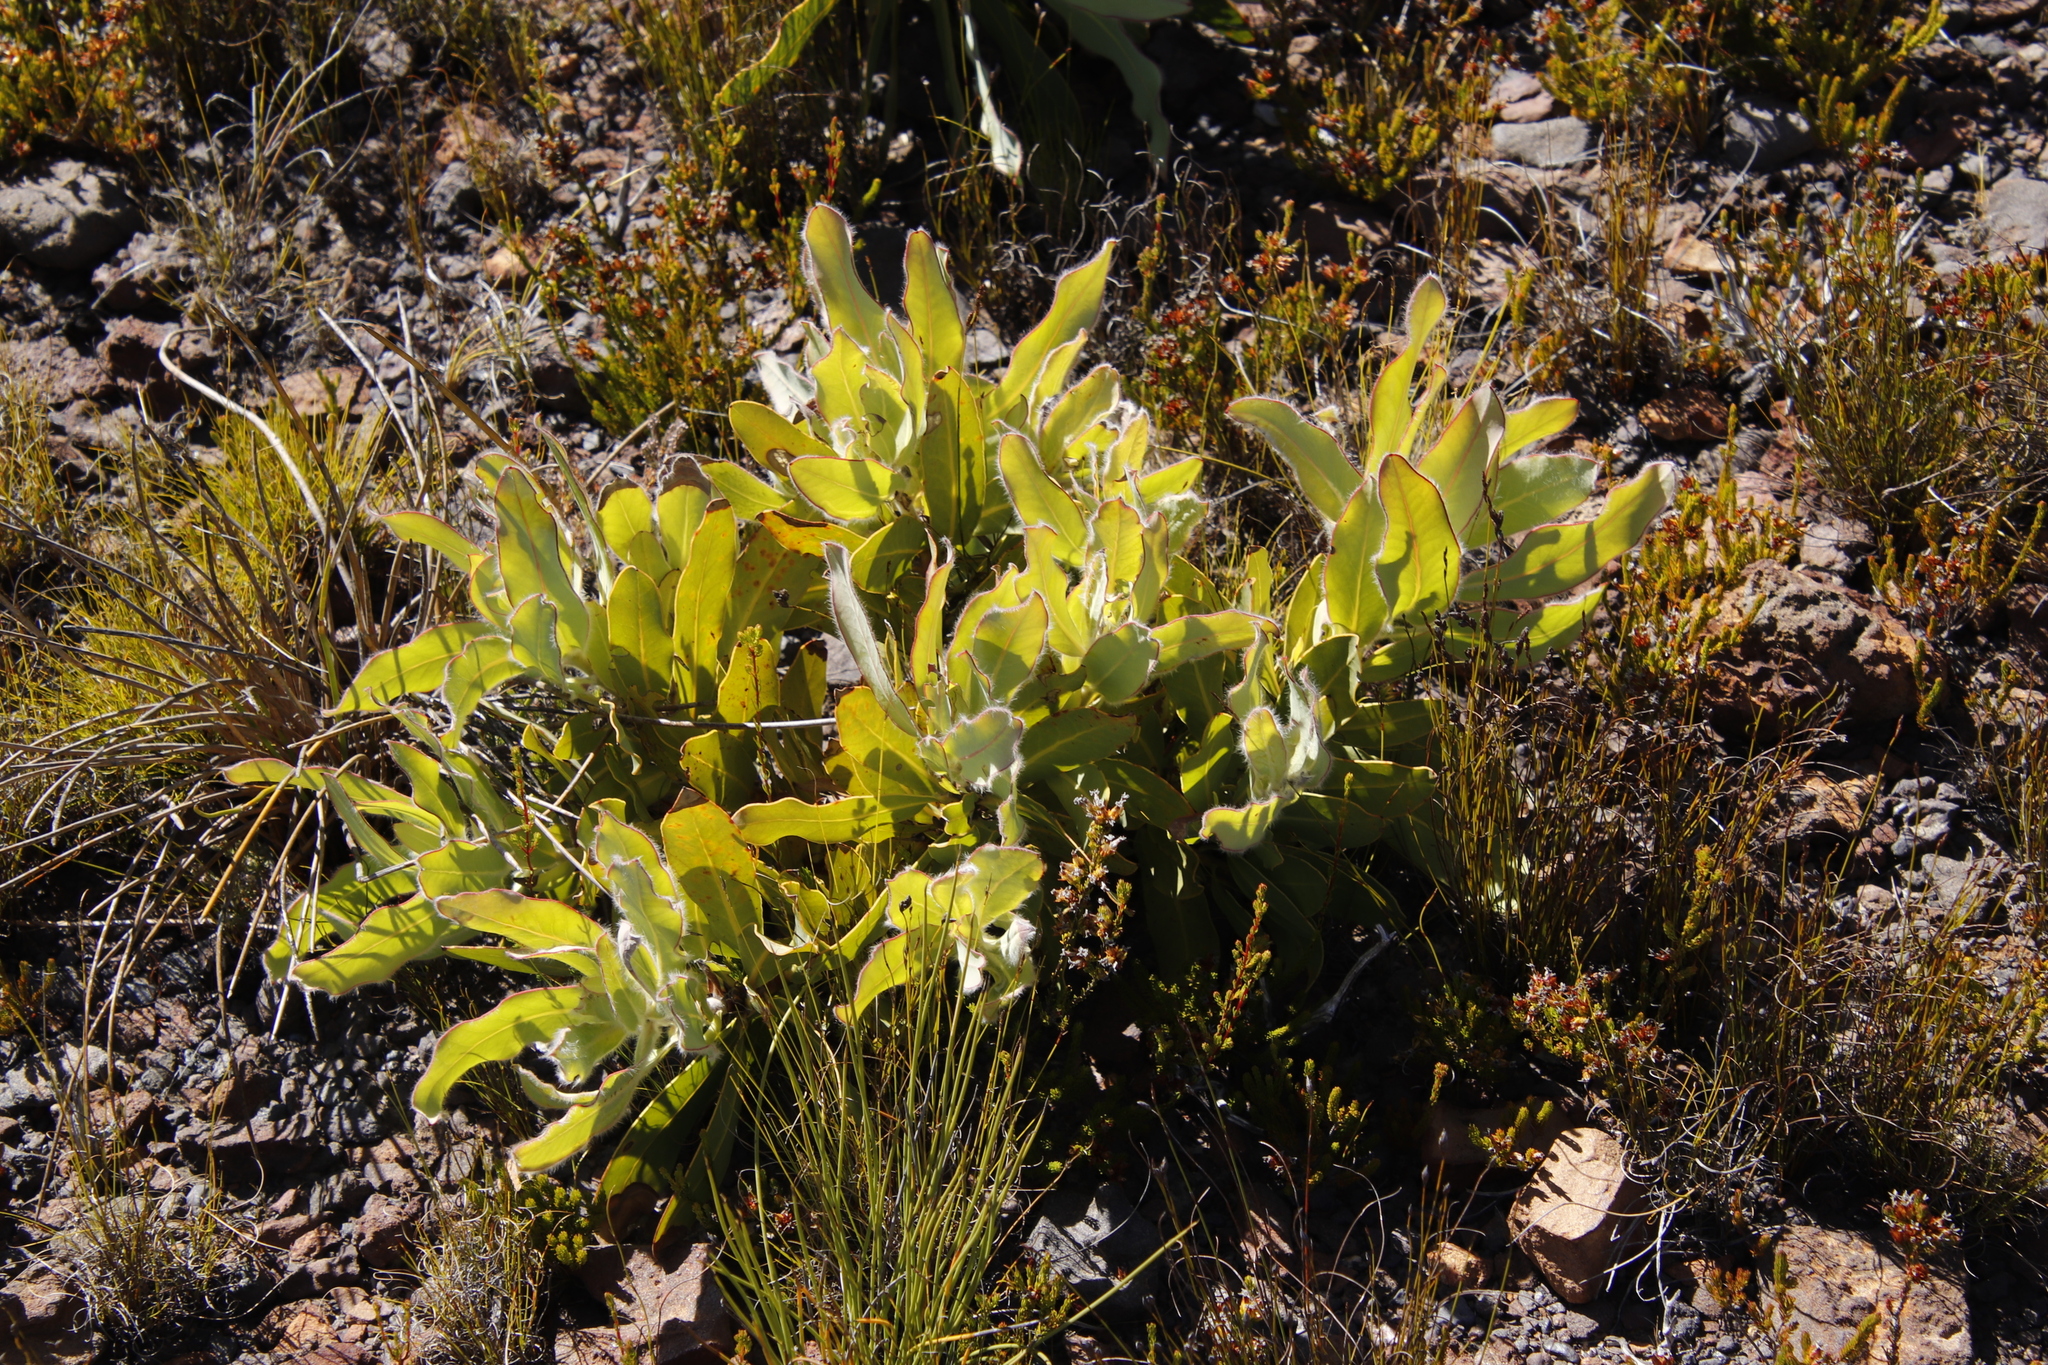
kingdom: Plantae
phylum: Tracheophyta
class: Magnoliopsida
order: Proteales
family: Proteaceae
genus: Protea
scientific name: Protea magnifica
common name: Bearded sugarbush
